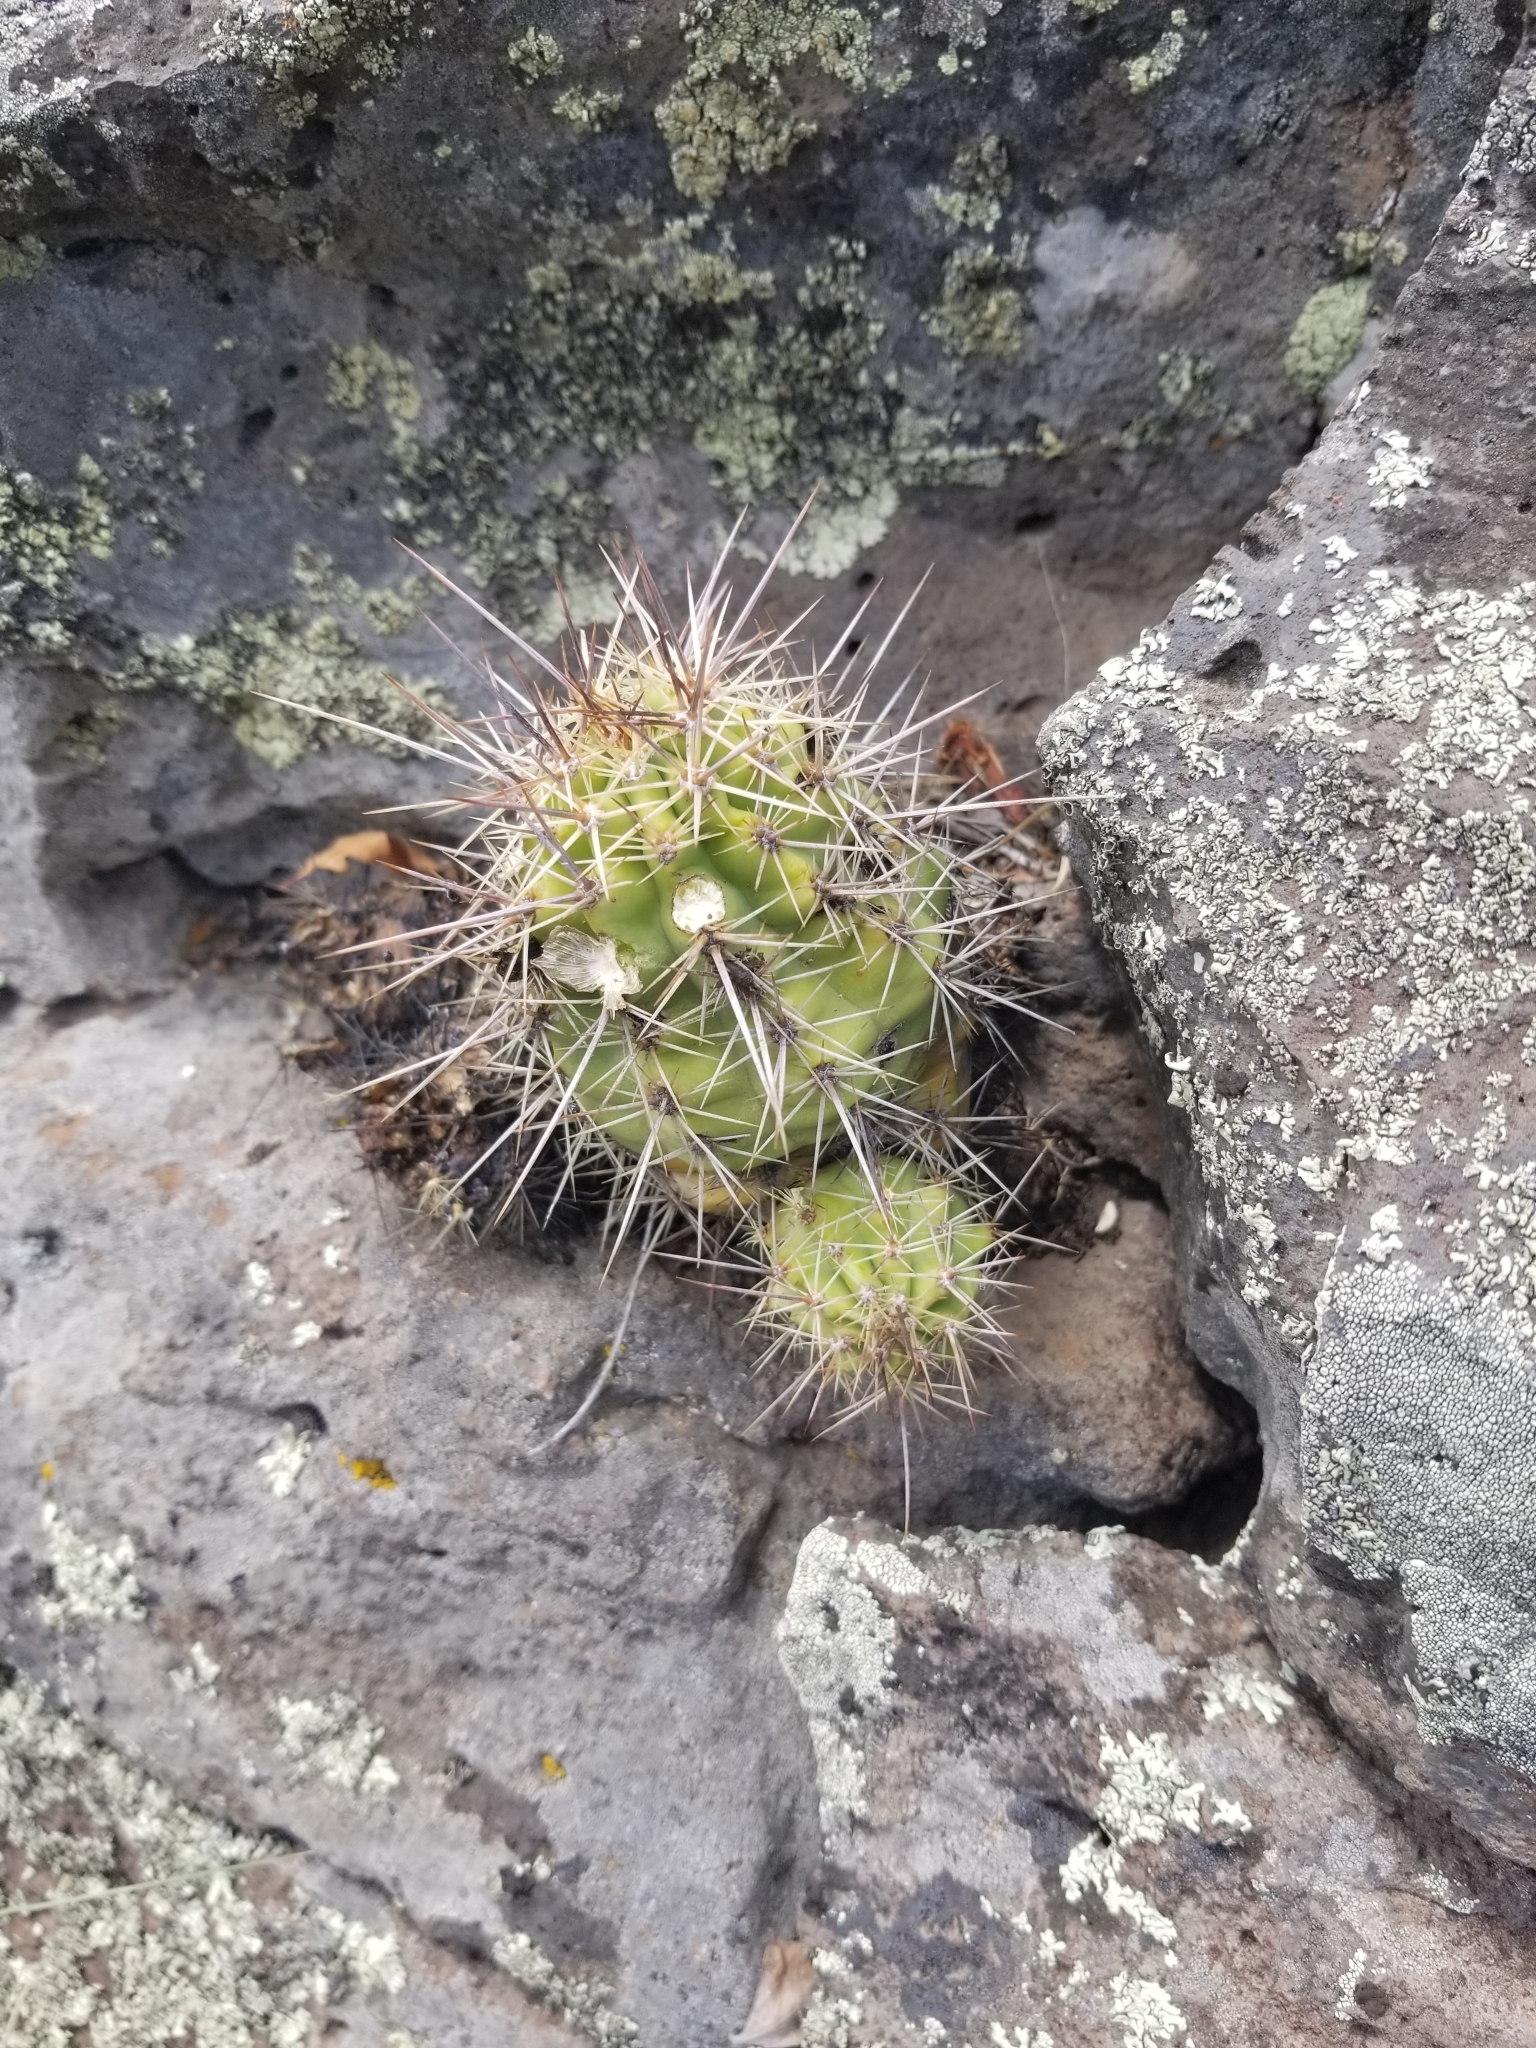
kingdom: Plantae
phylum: Tracheophyta
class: Magnoliopsida
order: Caryophyllales
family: Cactaceae
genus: Echinocereus
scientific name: Echinocereus arizonicus
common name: Arizona hedgehog cactus
